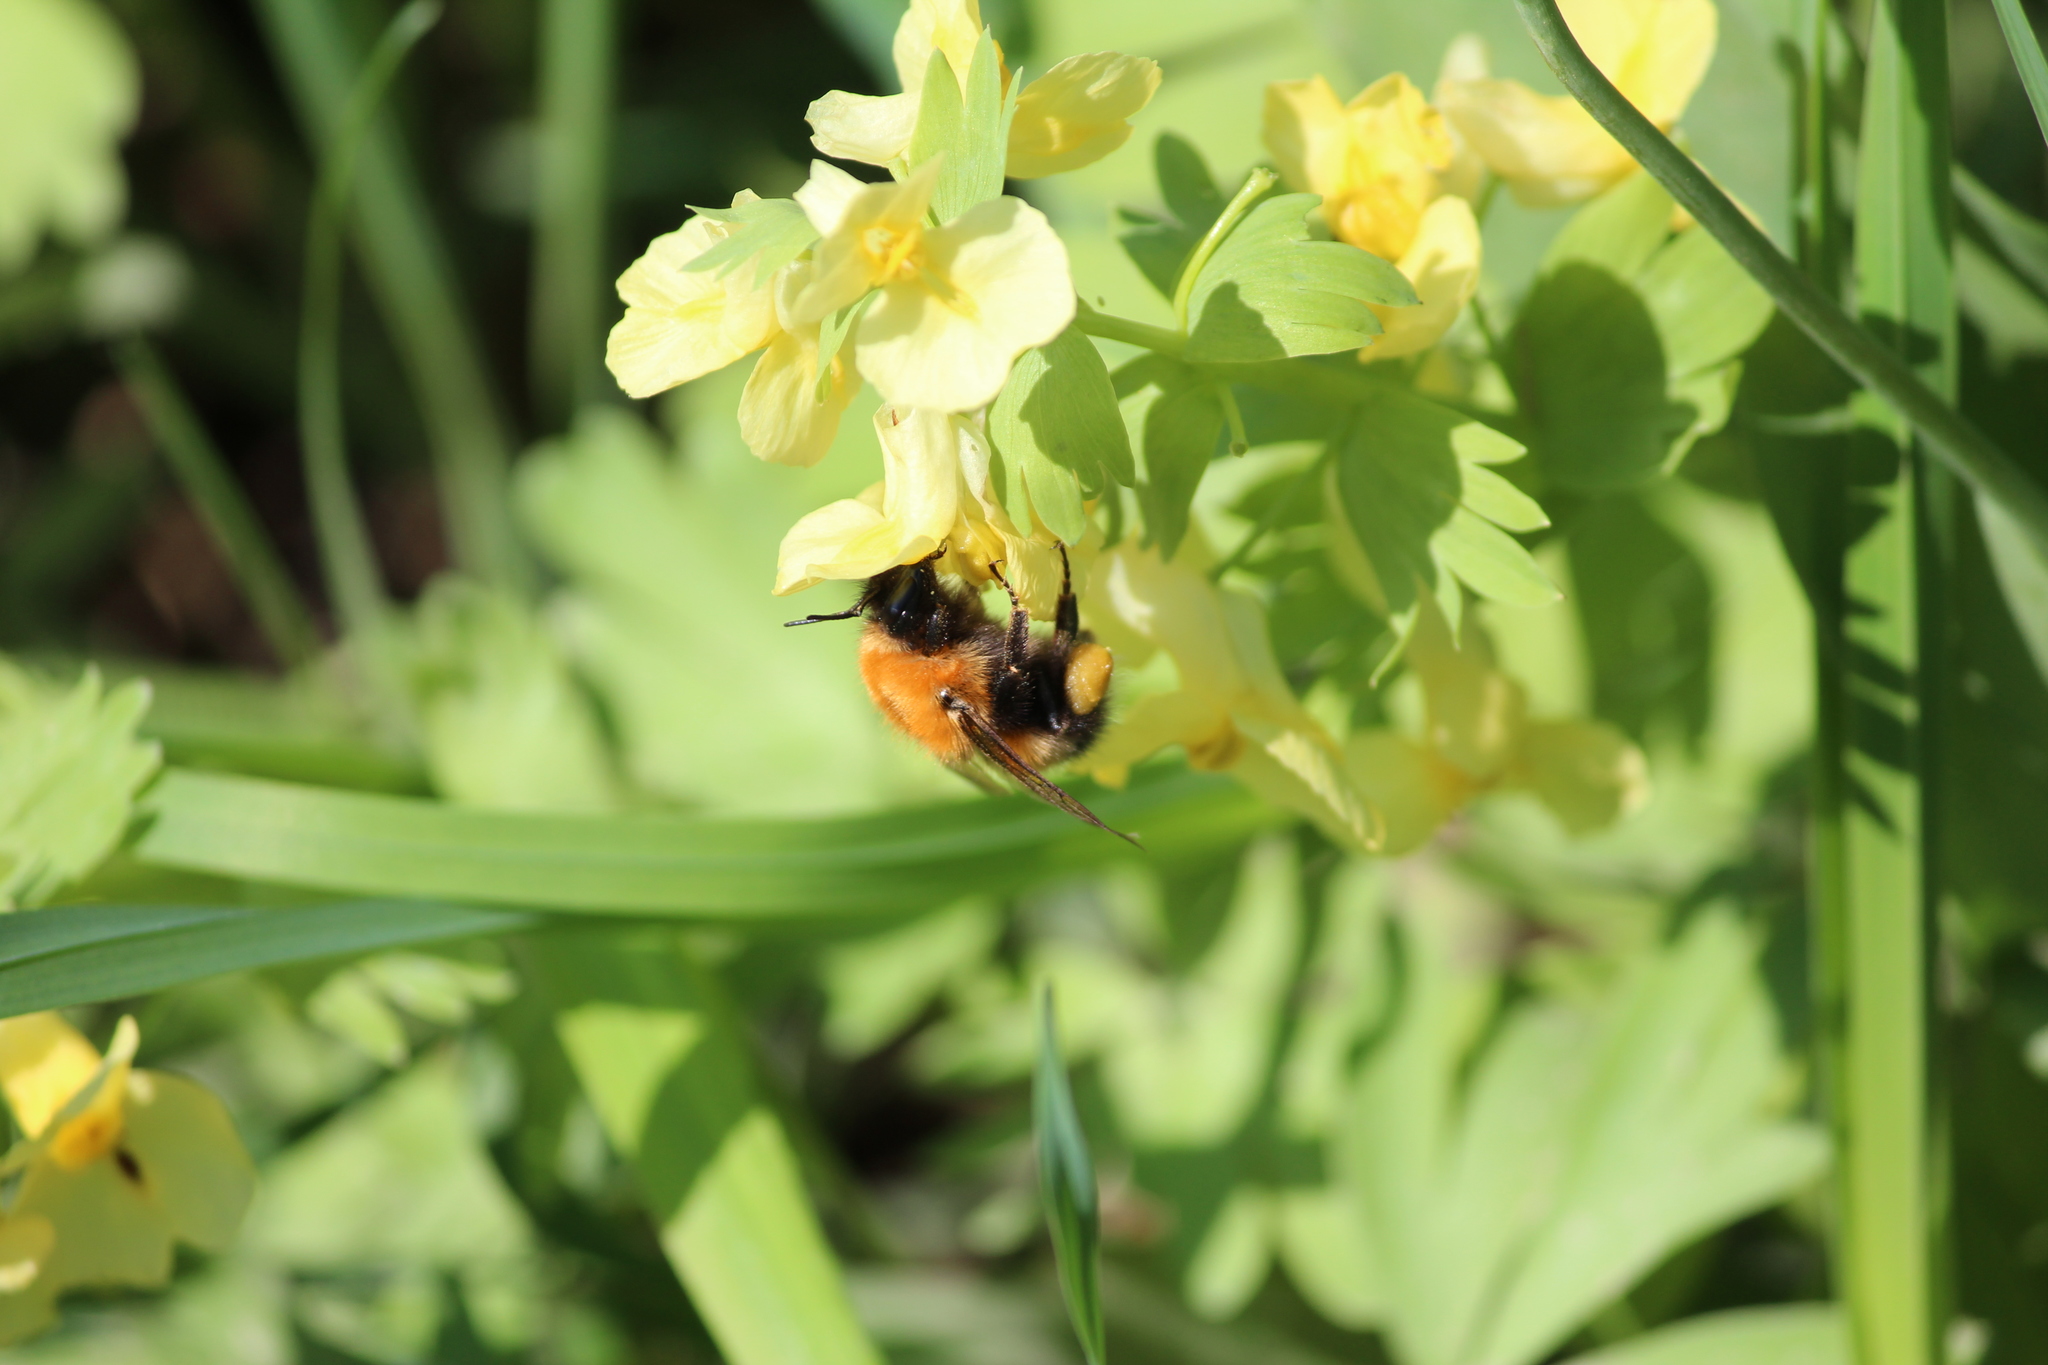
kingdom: Animalia
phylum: Arthropoda
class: Insecta
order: Hymenoptera
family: Apidae
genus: Bombus
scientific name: Bombus hypnorum
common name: New garden bumblebee
